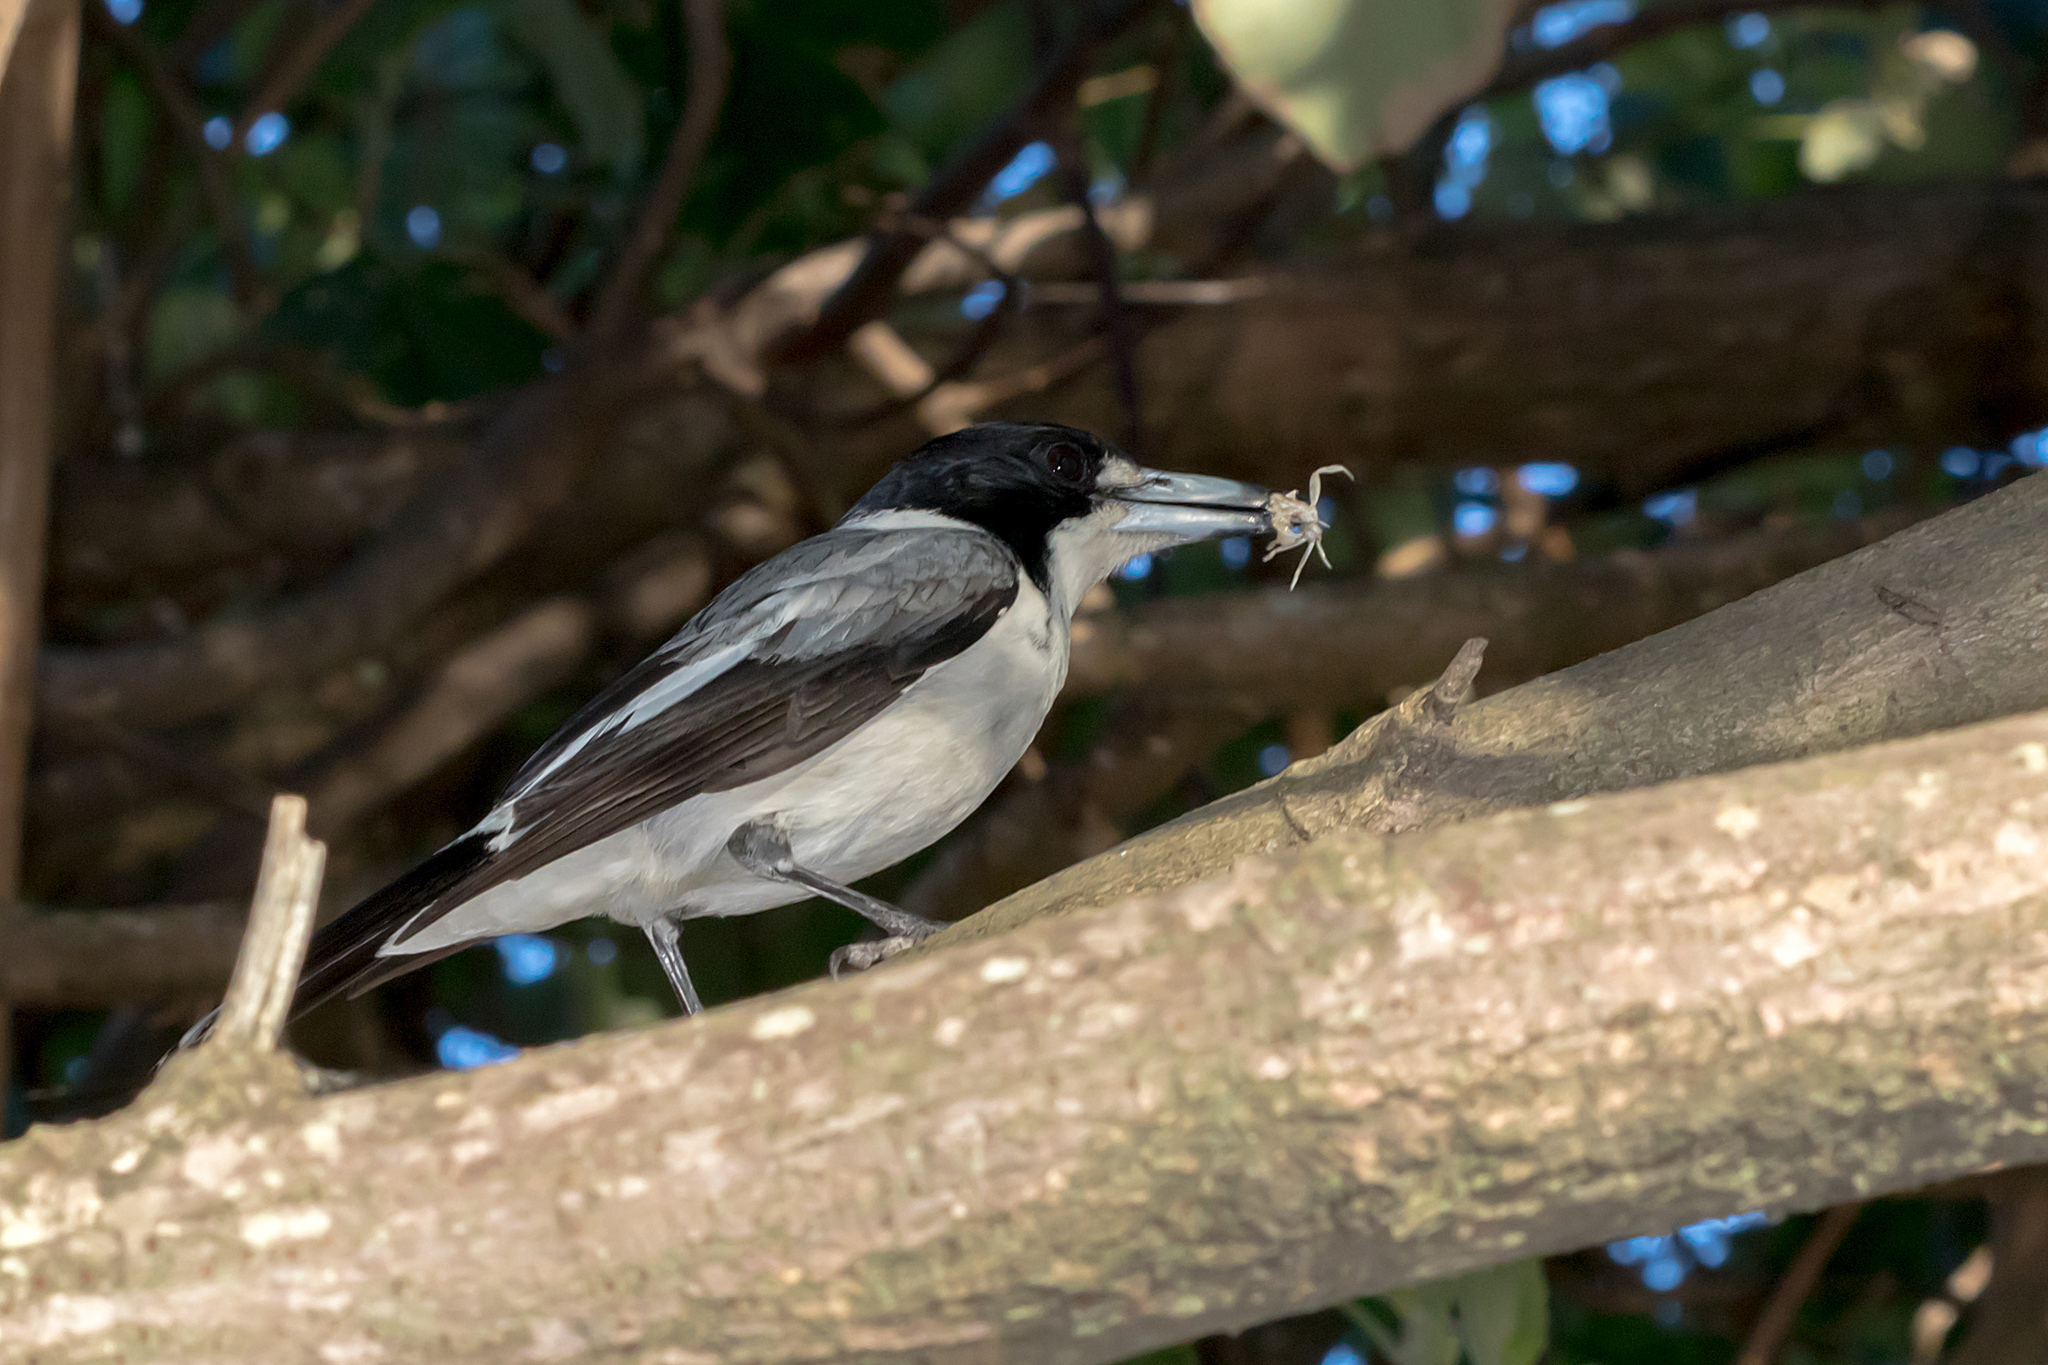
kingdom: Animalia
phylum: Chordata
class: Aves
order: Passeriformes
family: Cracticidae
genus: Cracticus
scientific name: Cracticus torquatus
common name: Grey butcherbird
